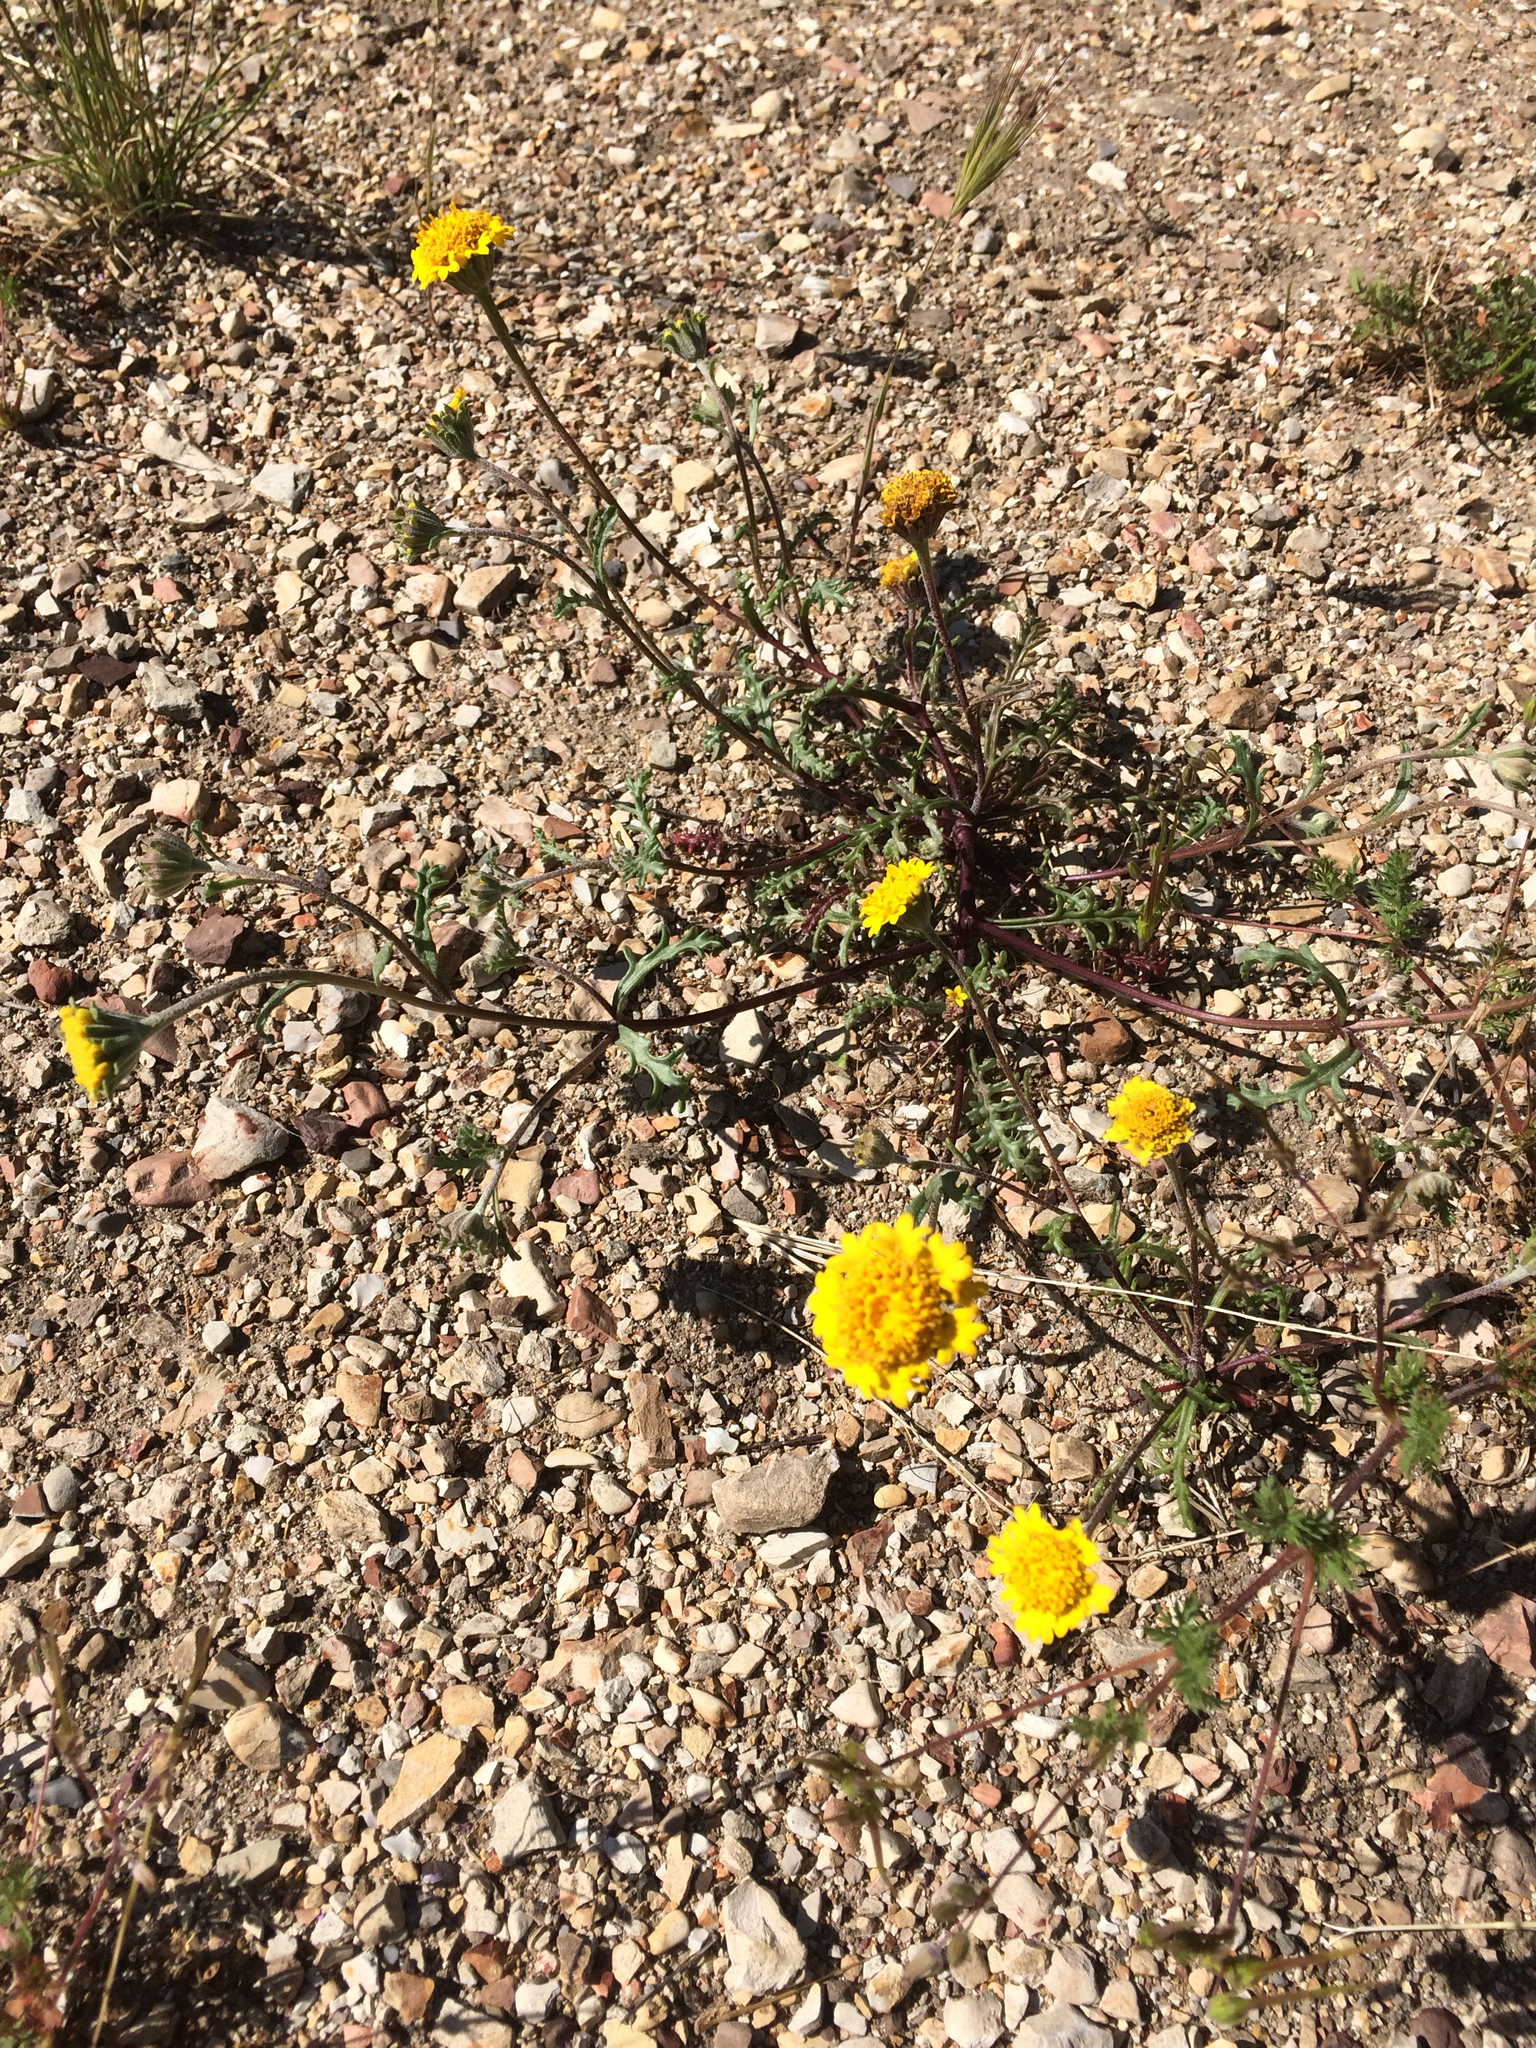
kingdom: Plantae
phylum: Tracheophyta
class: Magnoliopsida
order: Asterales
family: Asteraceae
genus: Chaenactis
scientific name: Chaenactis glabriuscula
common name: Yellow pincushion
